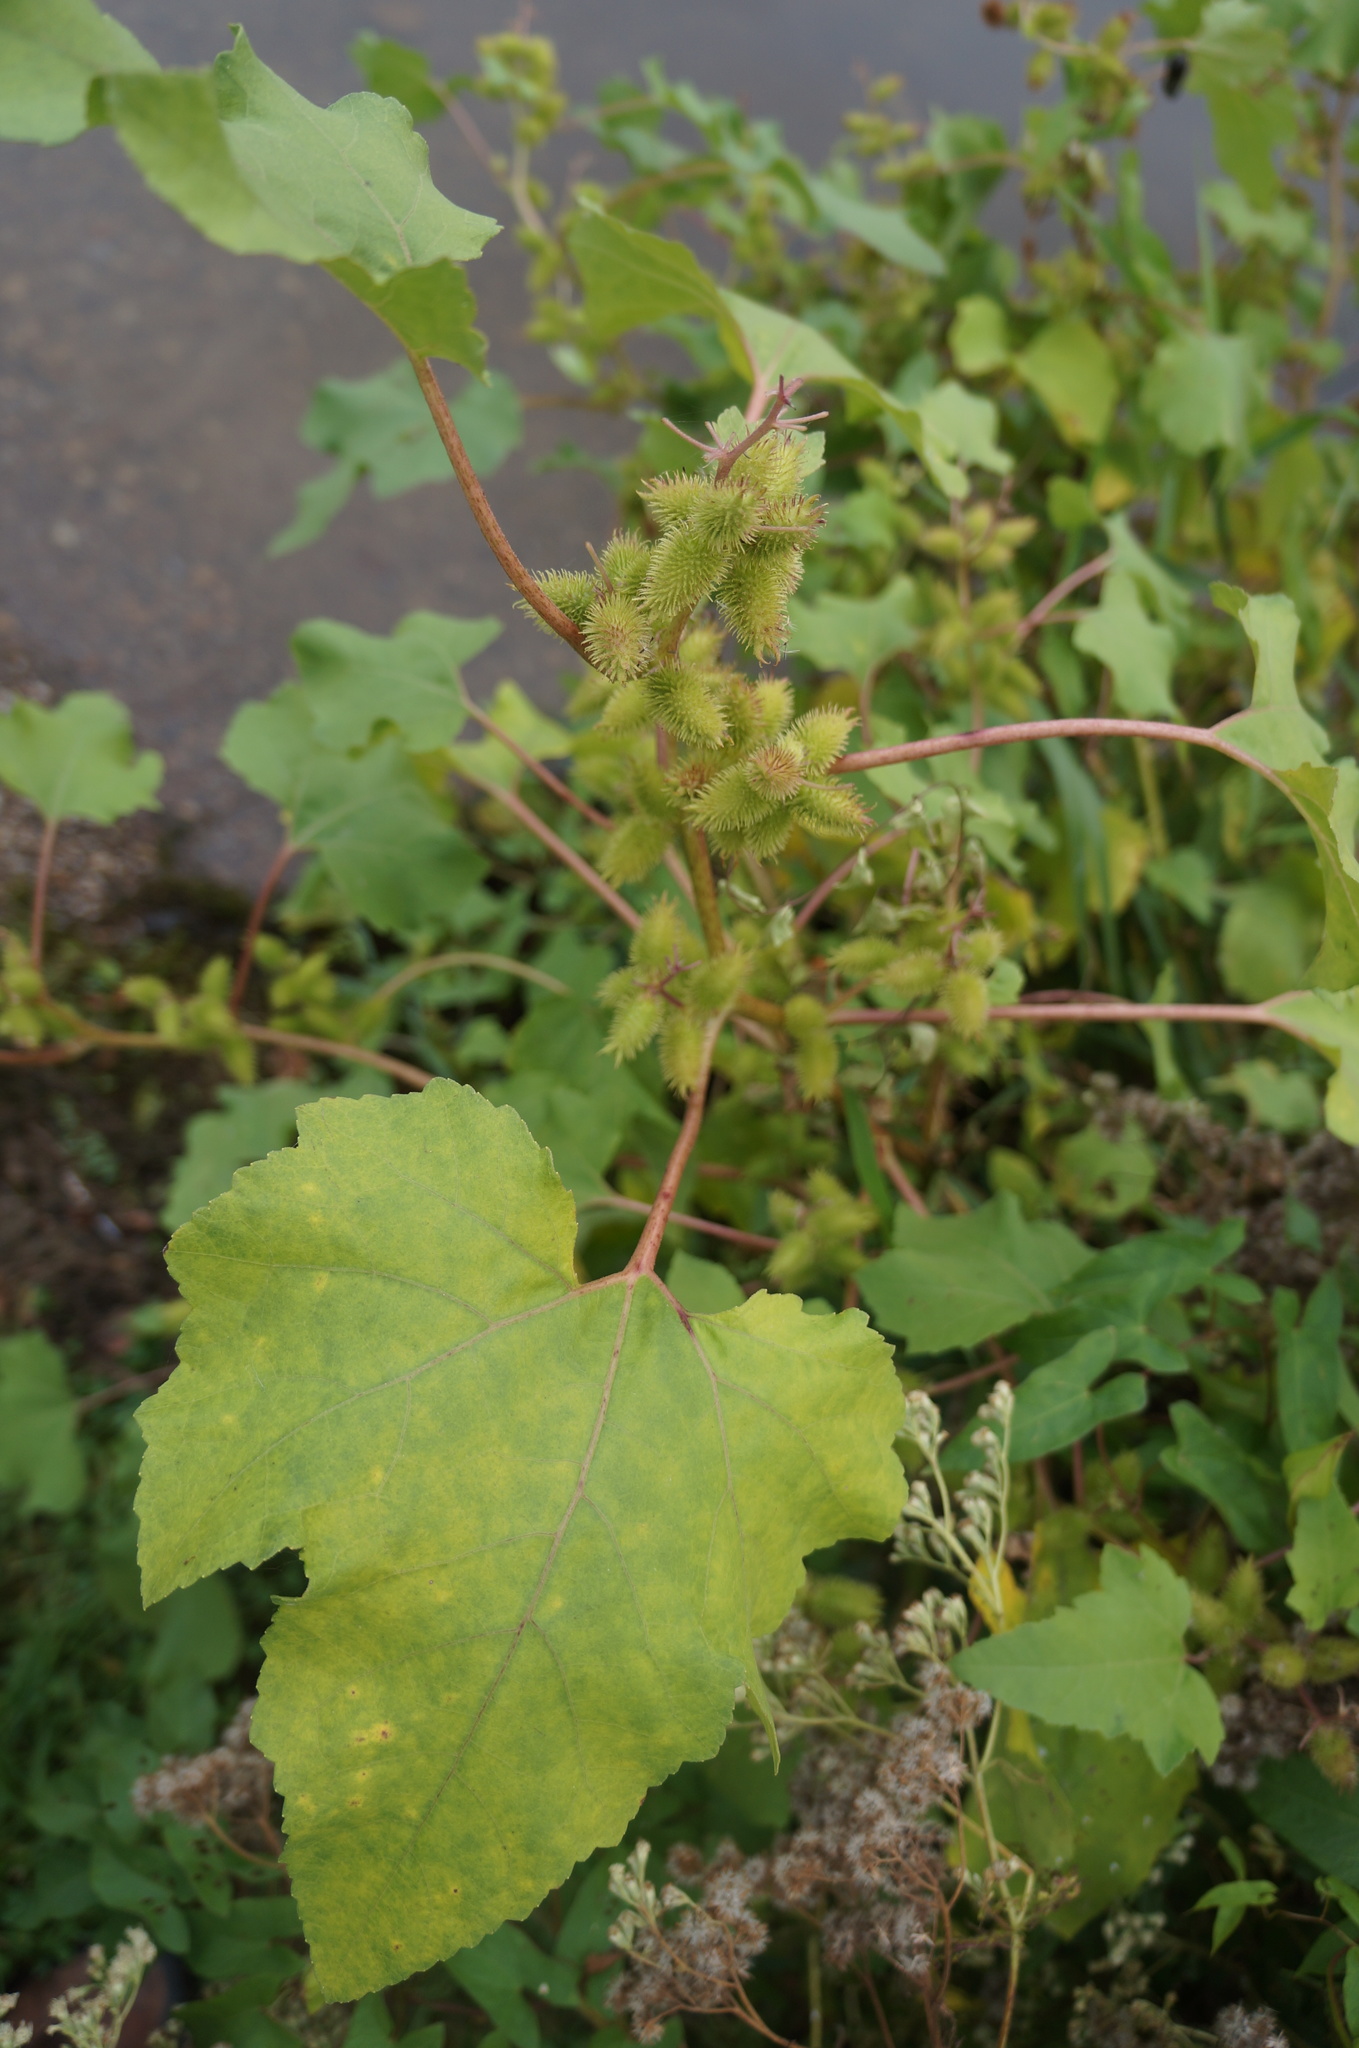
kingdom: Plantae
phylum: Tracheophyta
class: Magnoliopsida
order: Asterales
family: Asteraceae
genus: Xanthium
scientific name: Xanthium strumarium
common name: Rough cocklebur
